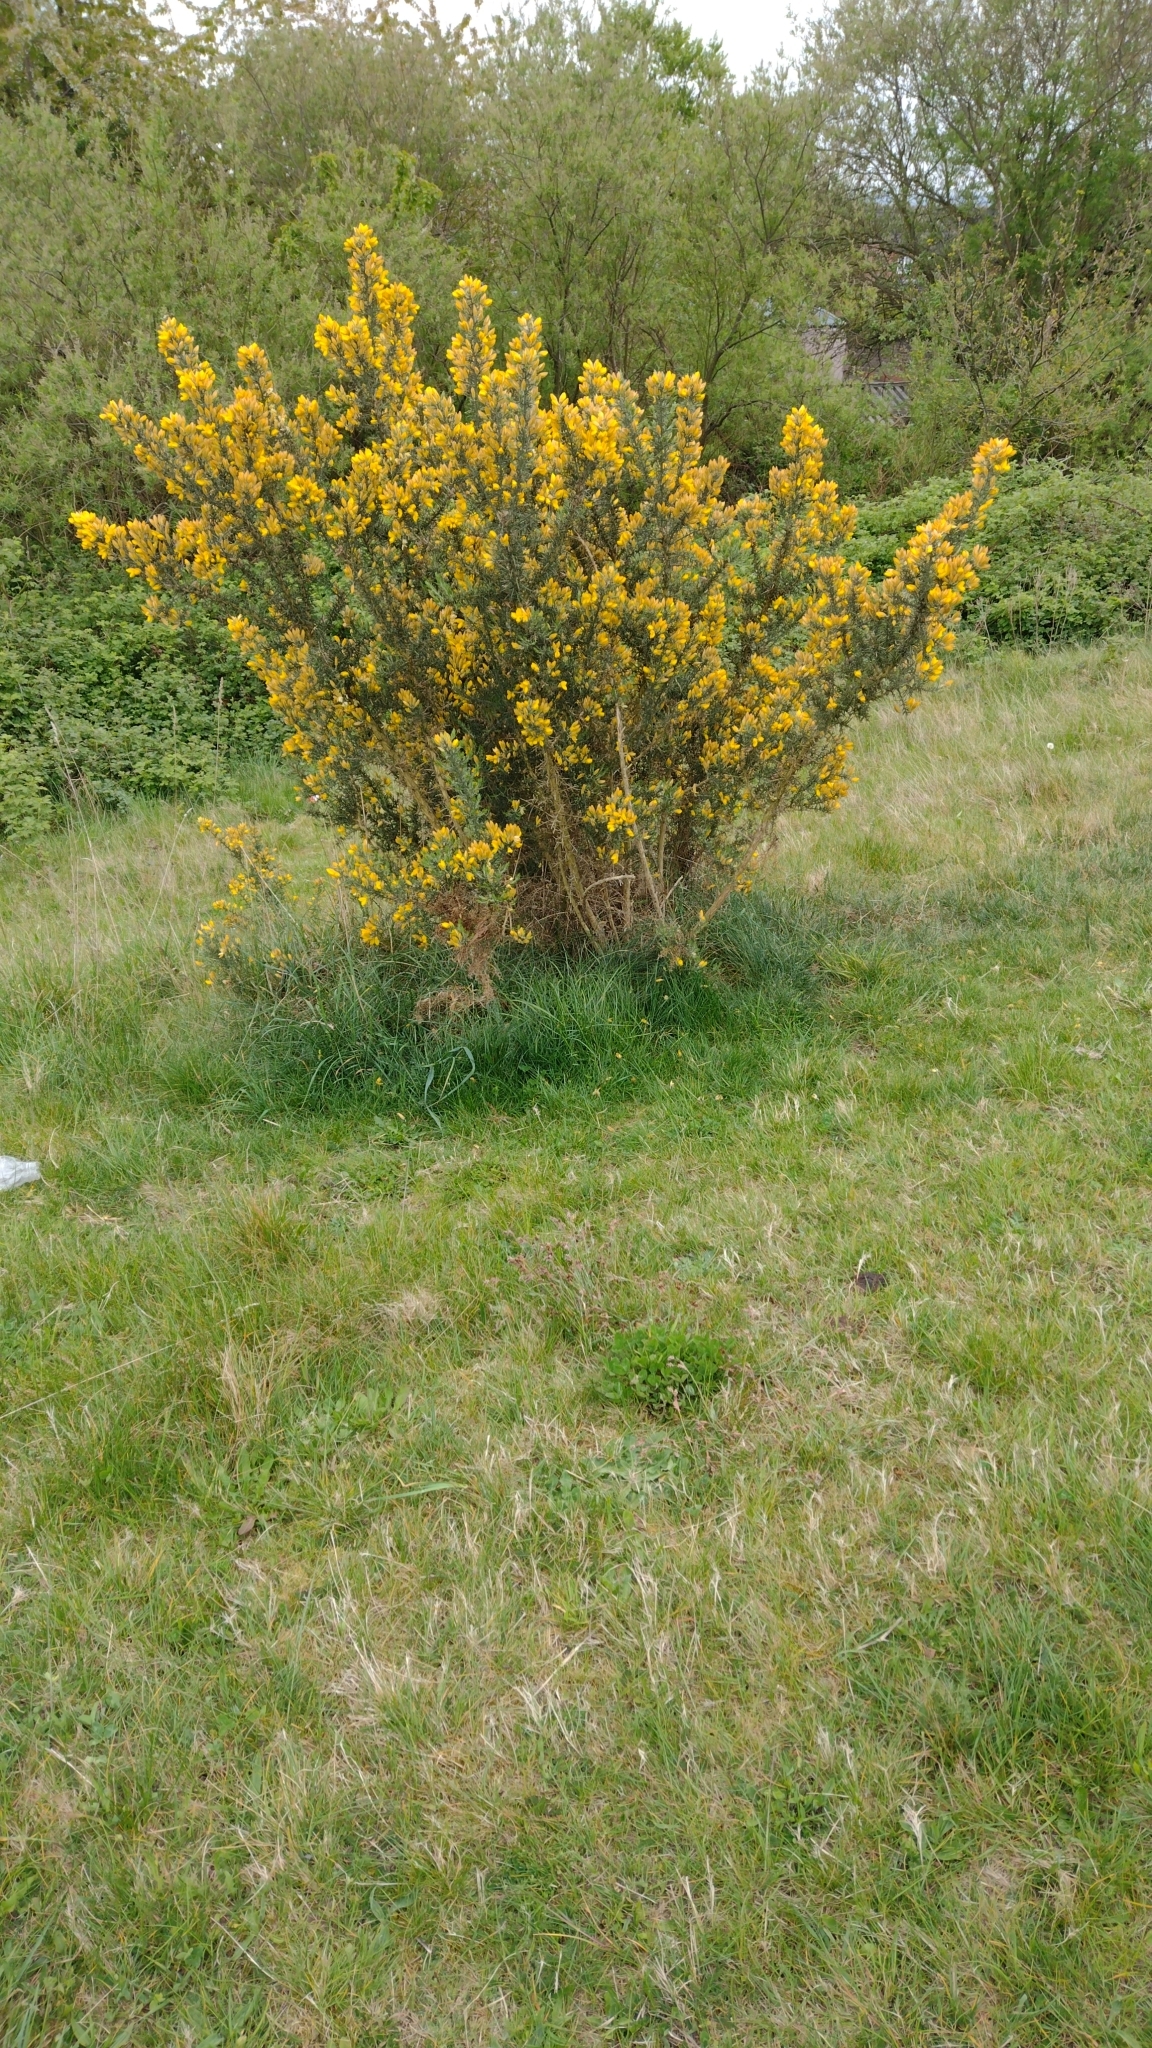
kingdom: Plantae
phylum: Tracheophyta
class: Magnoliopsida
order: Fabales
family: Fabaceae
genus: Cytisus
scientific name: Cytisus scoparius
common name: Scotch broom
